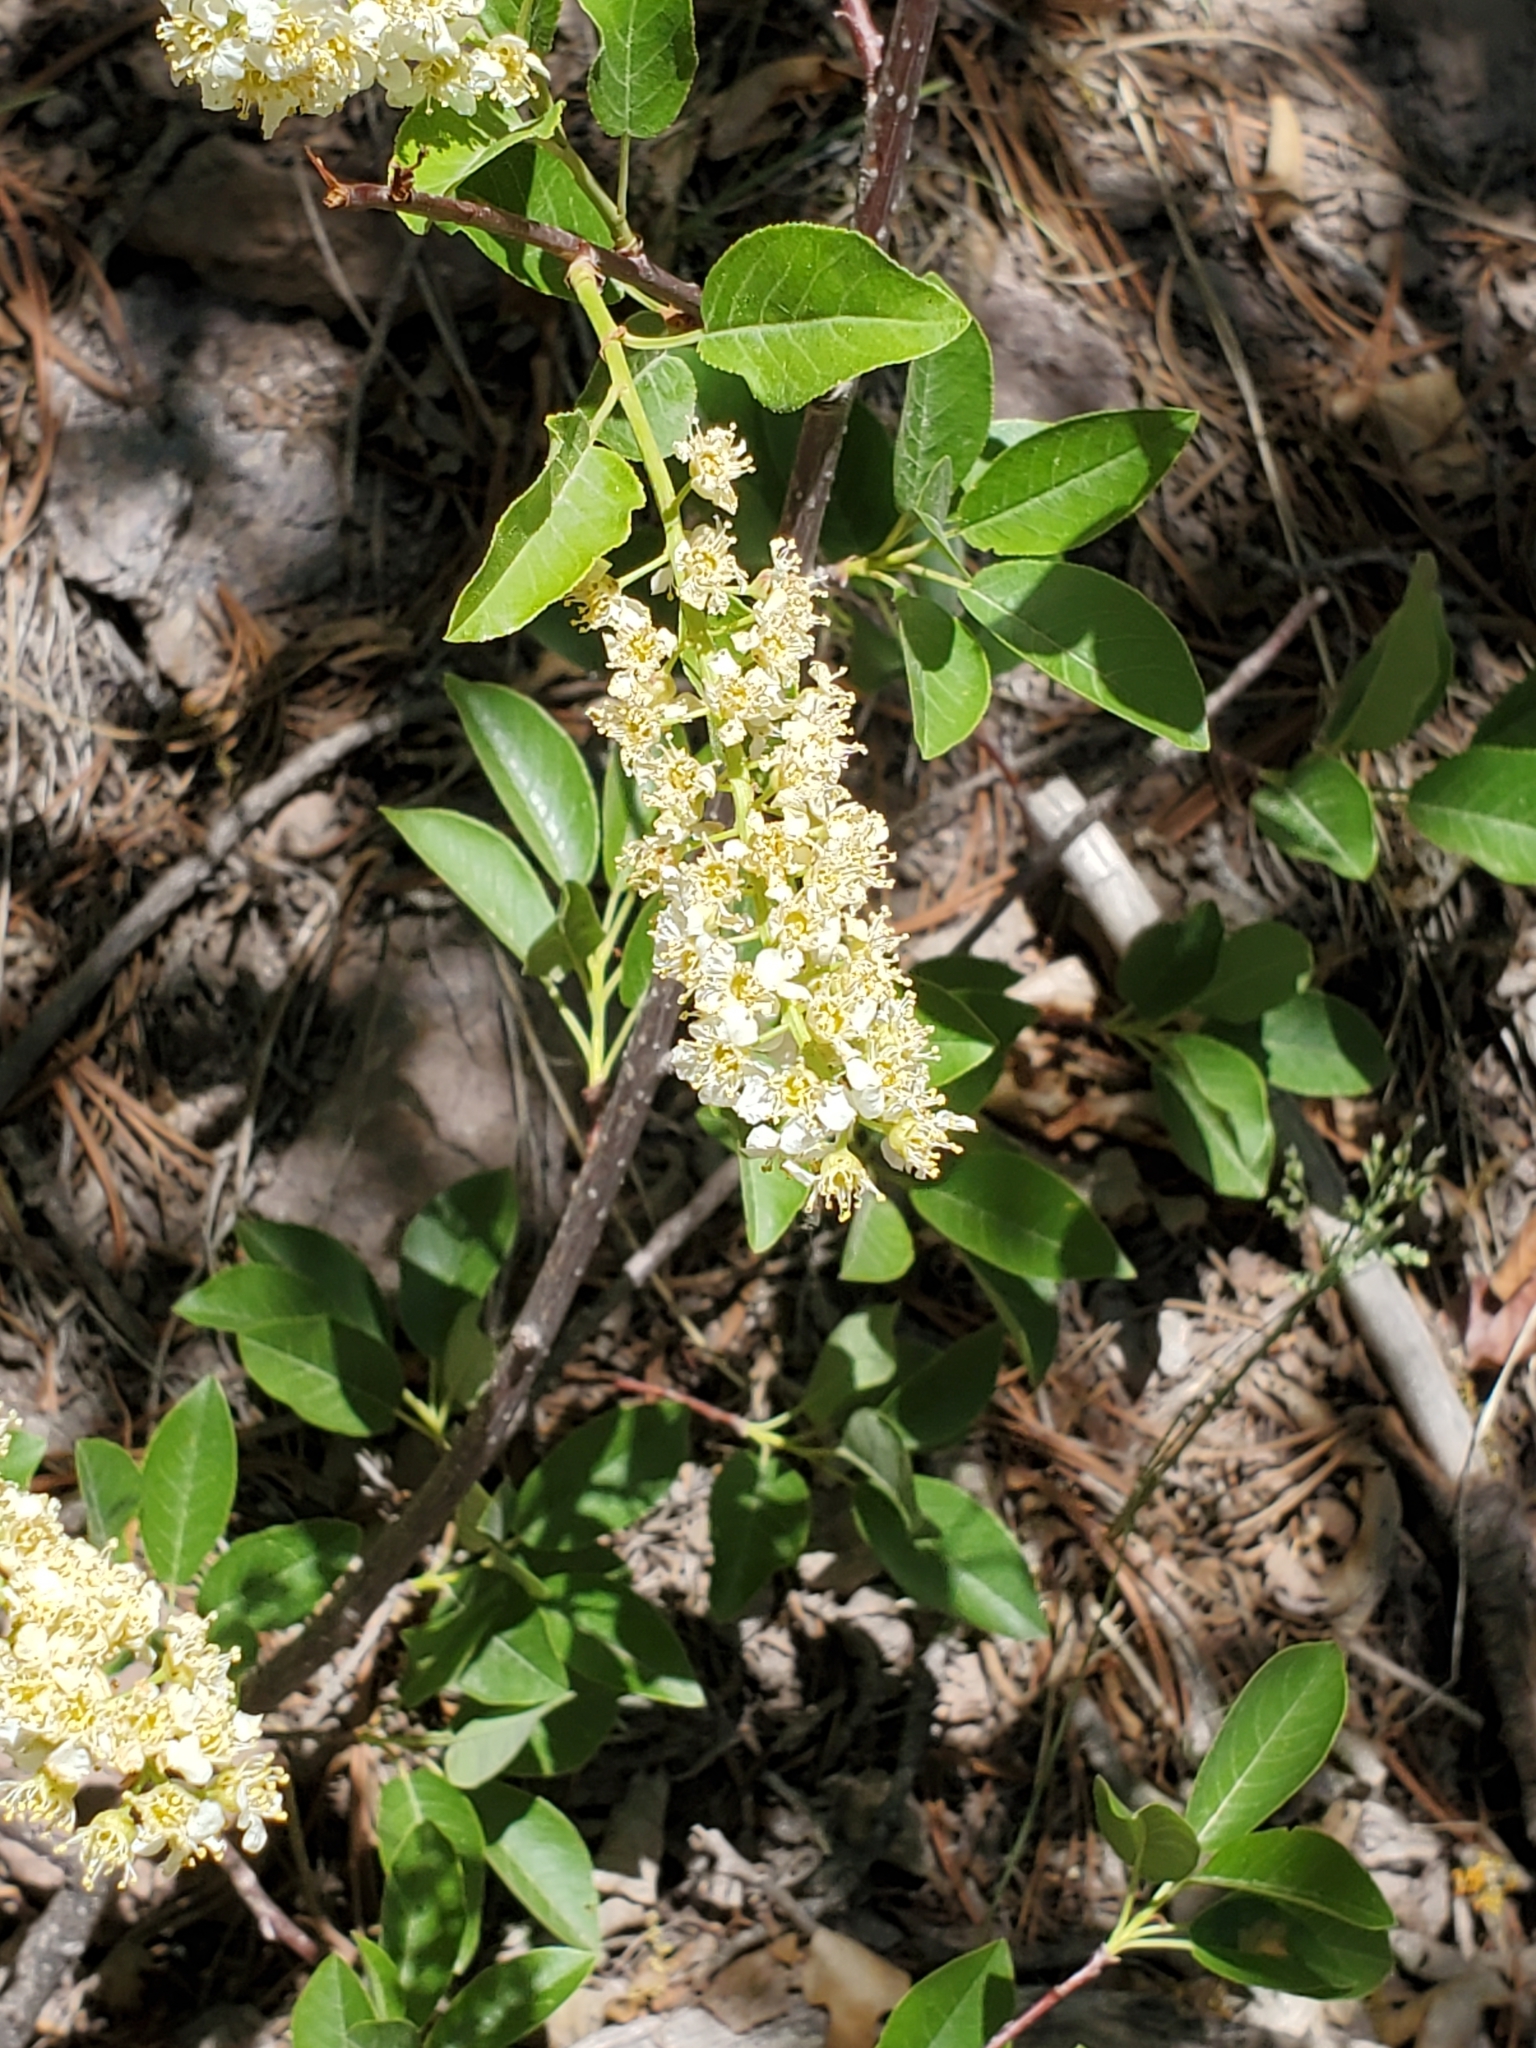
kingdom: Plantae
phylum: Tracheophyta
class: Magnoliopsida
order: Rosales
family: Rosaceae
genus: Prunus
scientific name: Prunus virginiana
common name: Chokecherry
